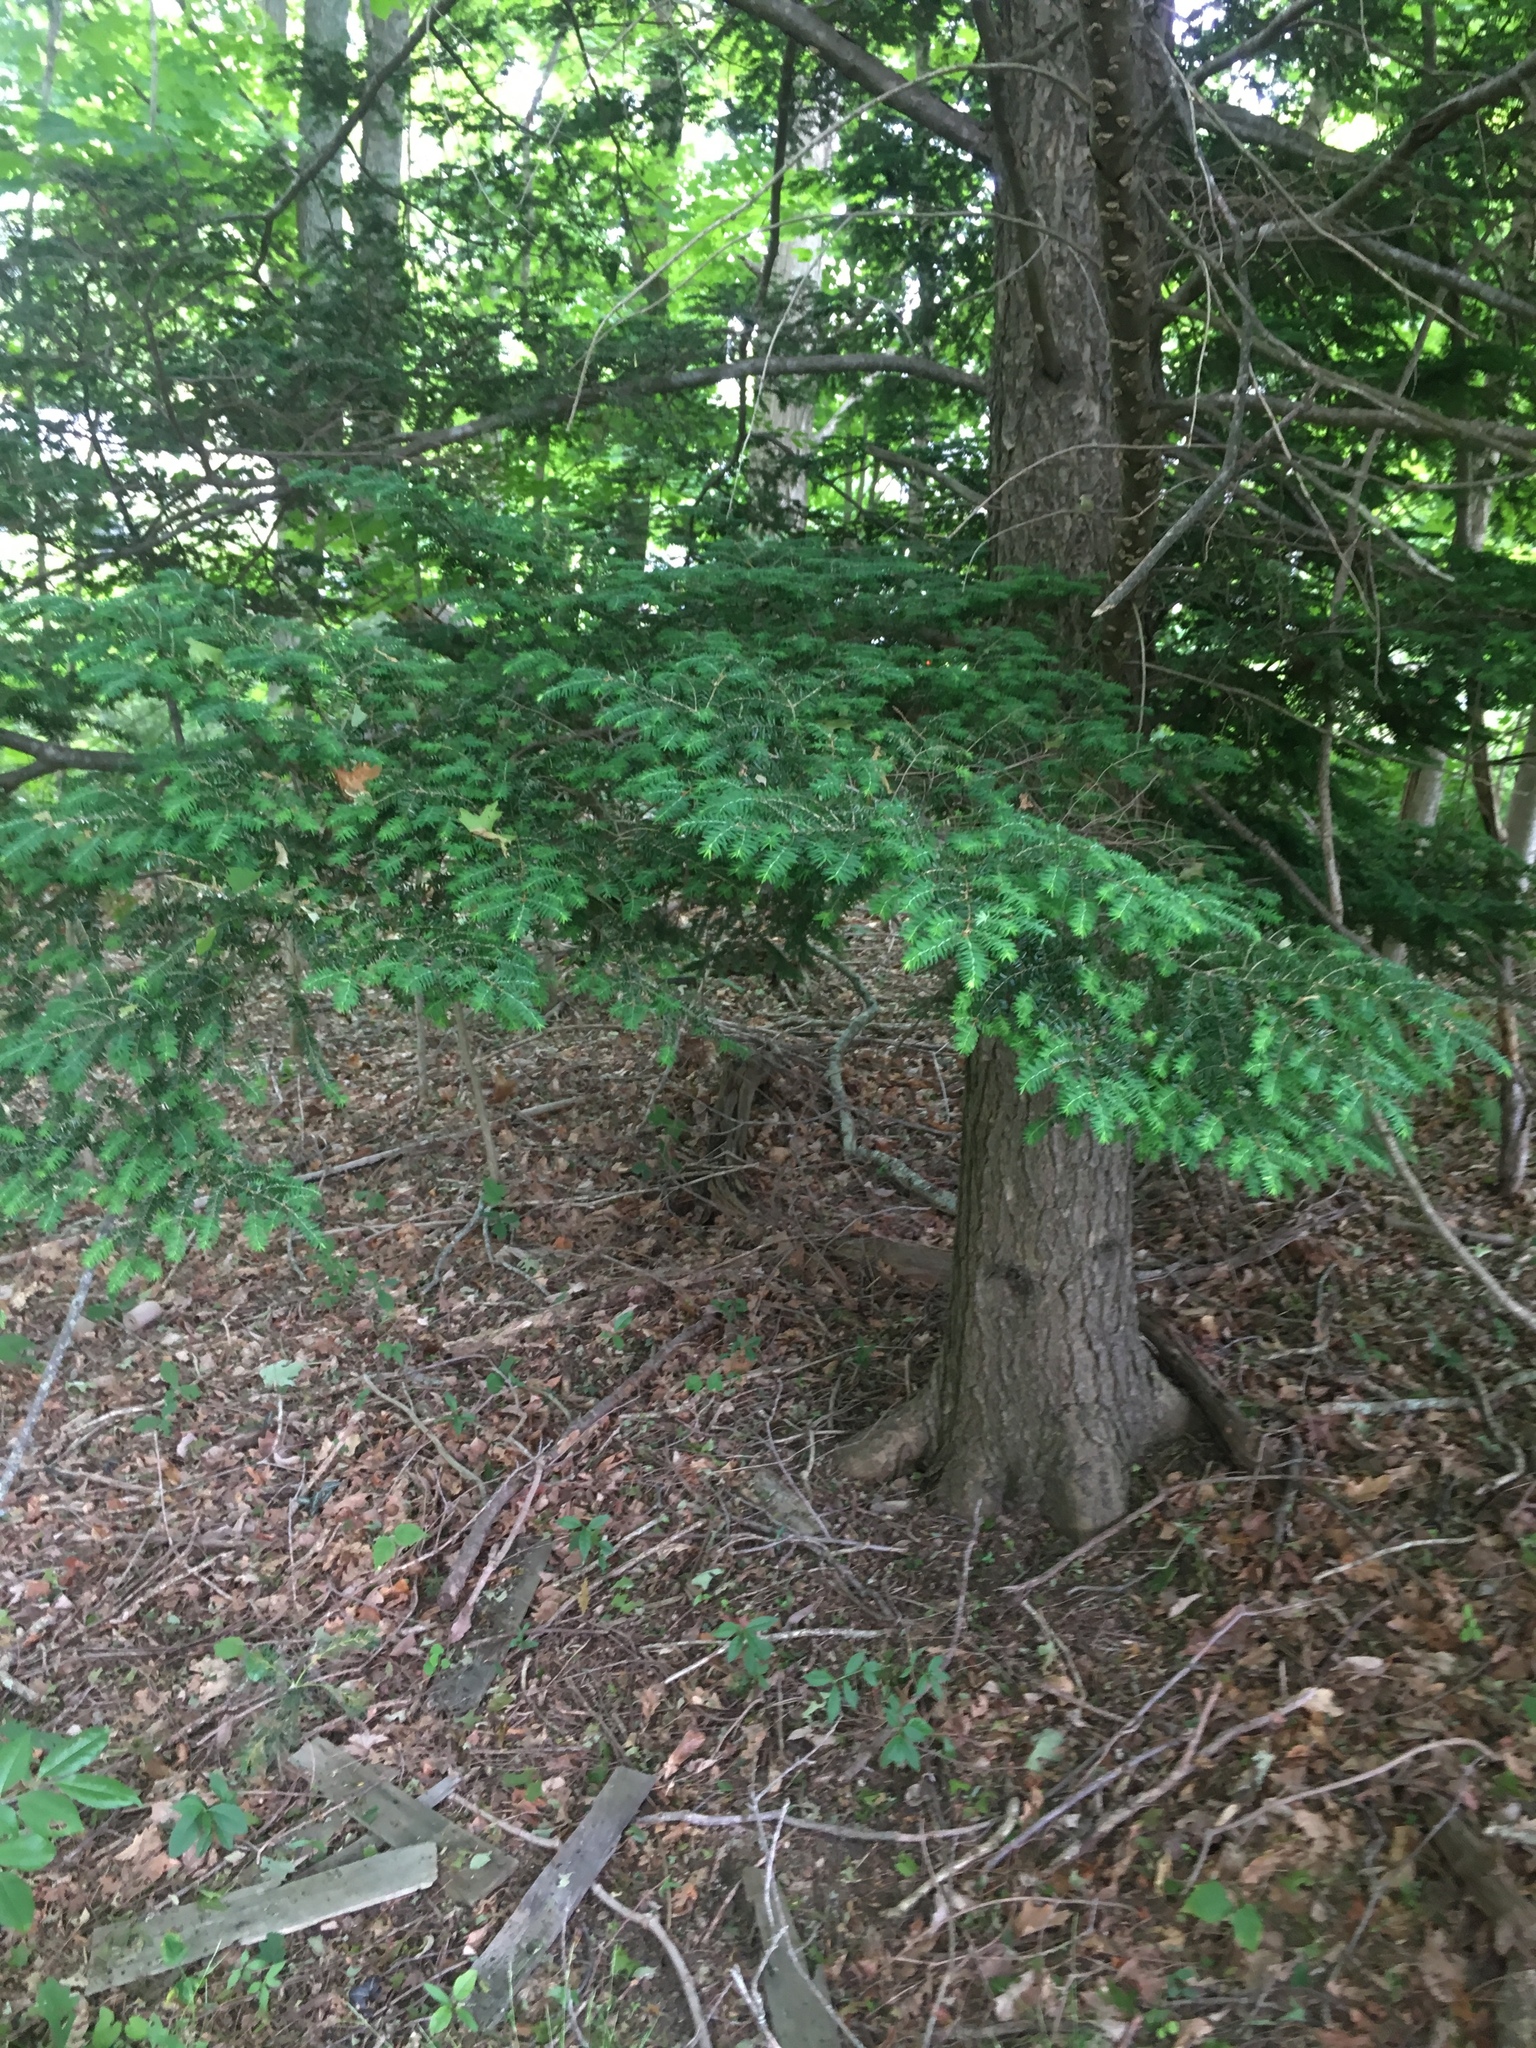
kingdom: Plantae
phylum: Tracheophyta
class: Pinopsida
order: Pinales
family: Pinaceae
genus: Tsuga
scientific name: Tsuga canadensis
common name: Eastern hemlock
